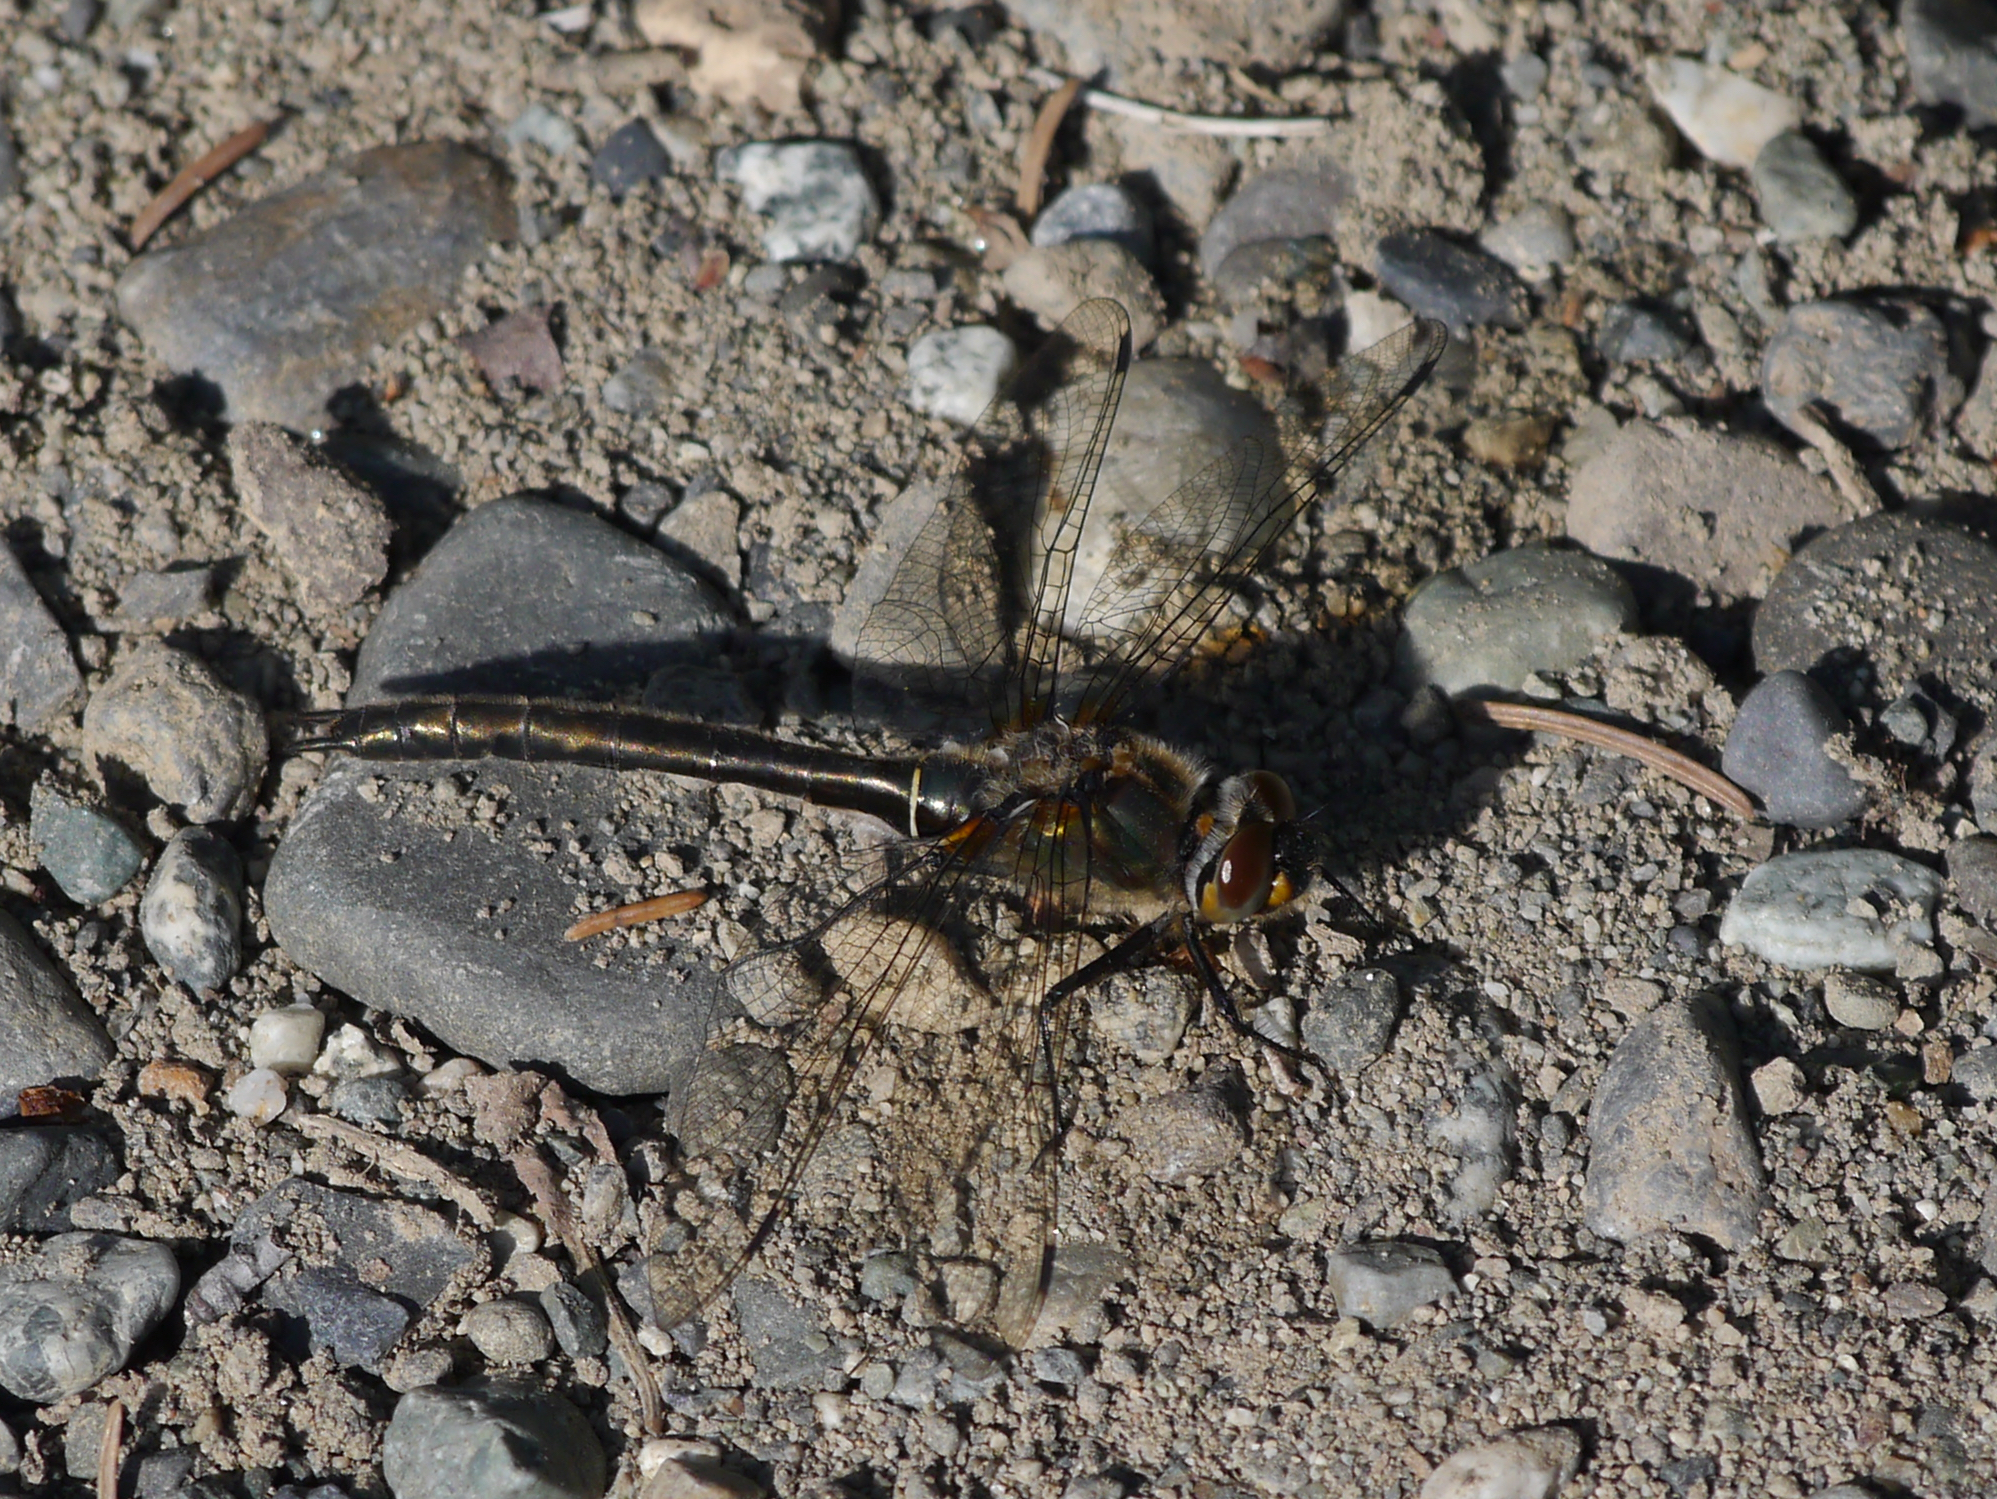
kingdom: Animalia
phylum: Arthropoda
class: Insecta
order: Odonata
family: Corduliidae
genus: Cordulia
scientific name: Cordulia shurtleffii
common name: American emerald
